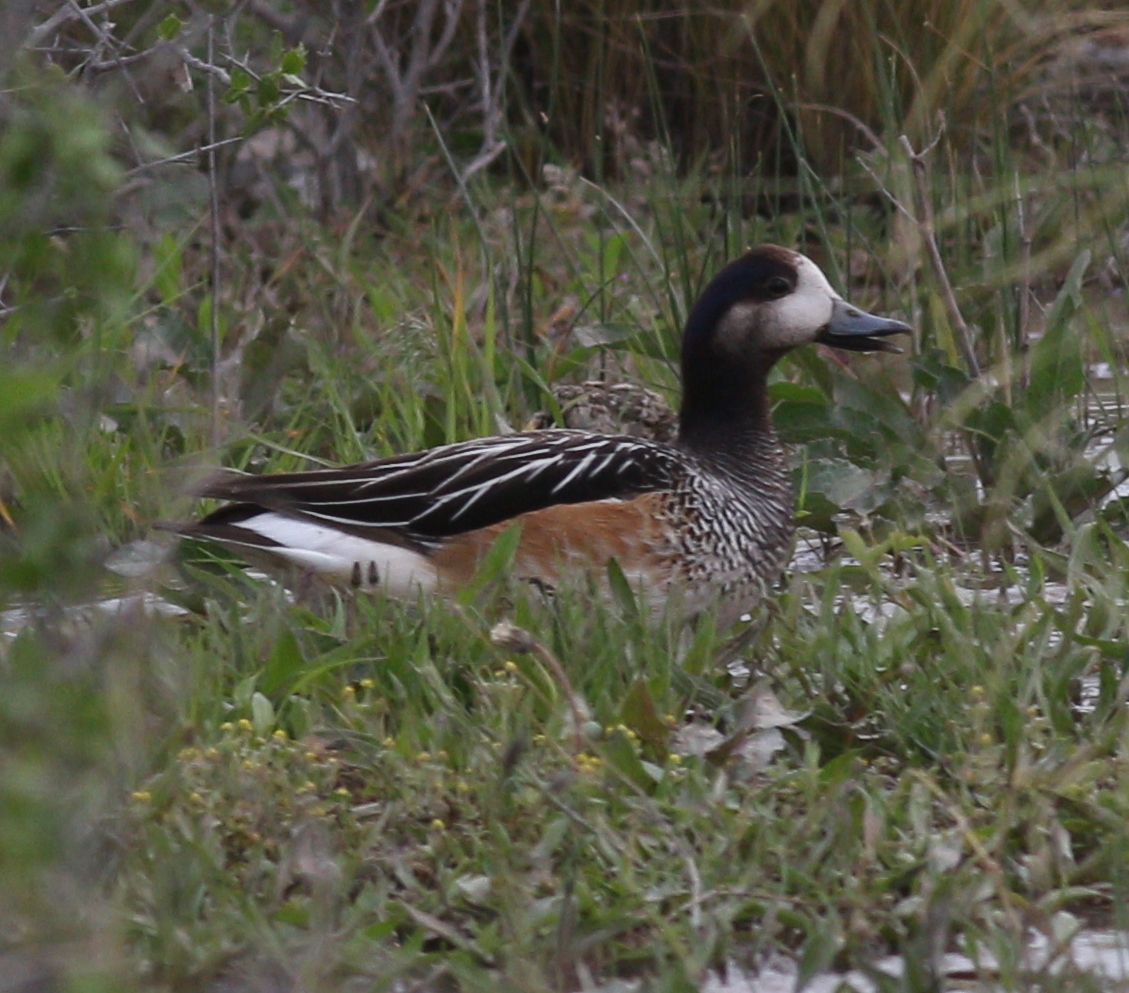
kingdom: Animalia
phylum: Chordata
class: Aves
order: Anseriformes
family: Anatidae
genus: Mareca
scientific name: Mareca sibilatrix
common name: Chiloe wigeon
